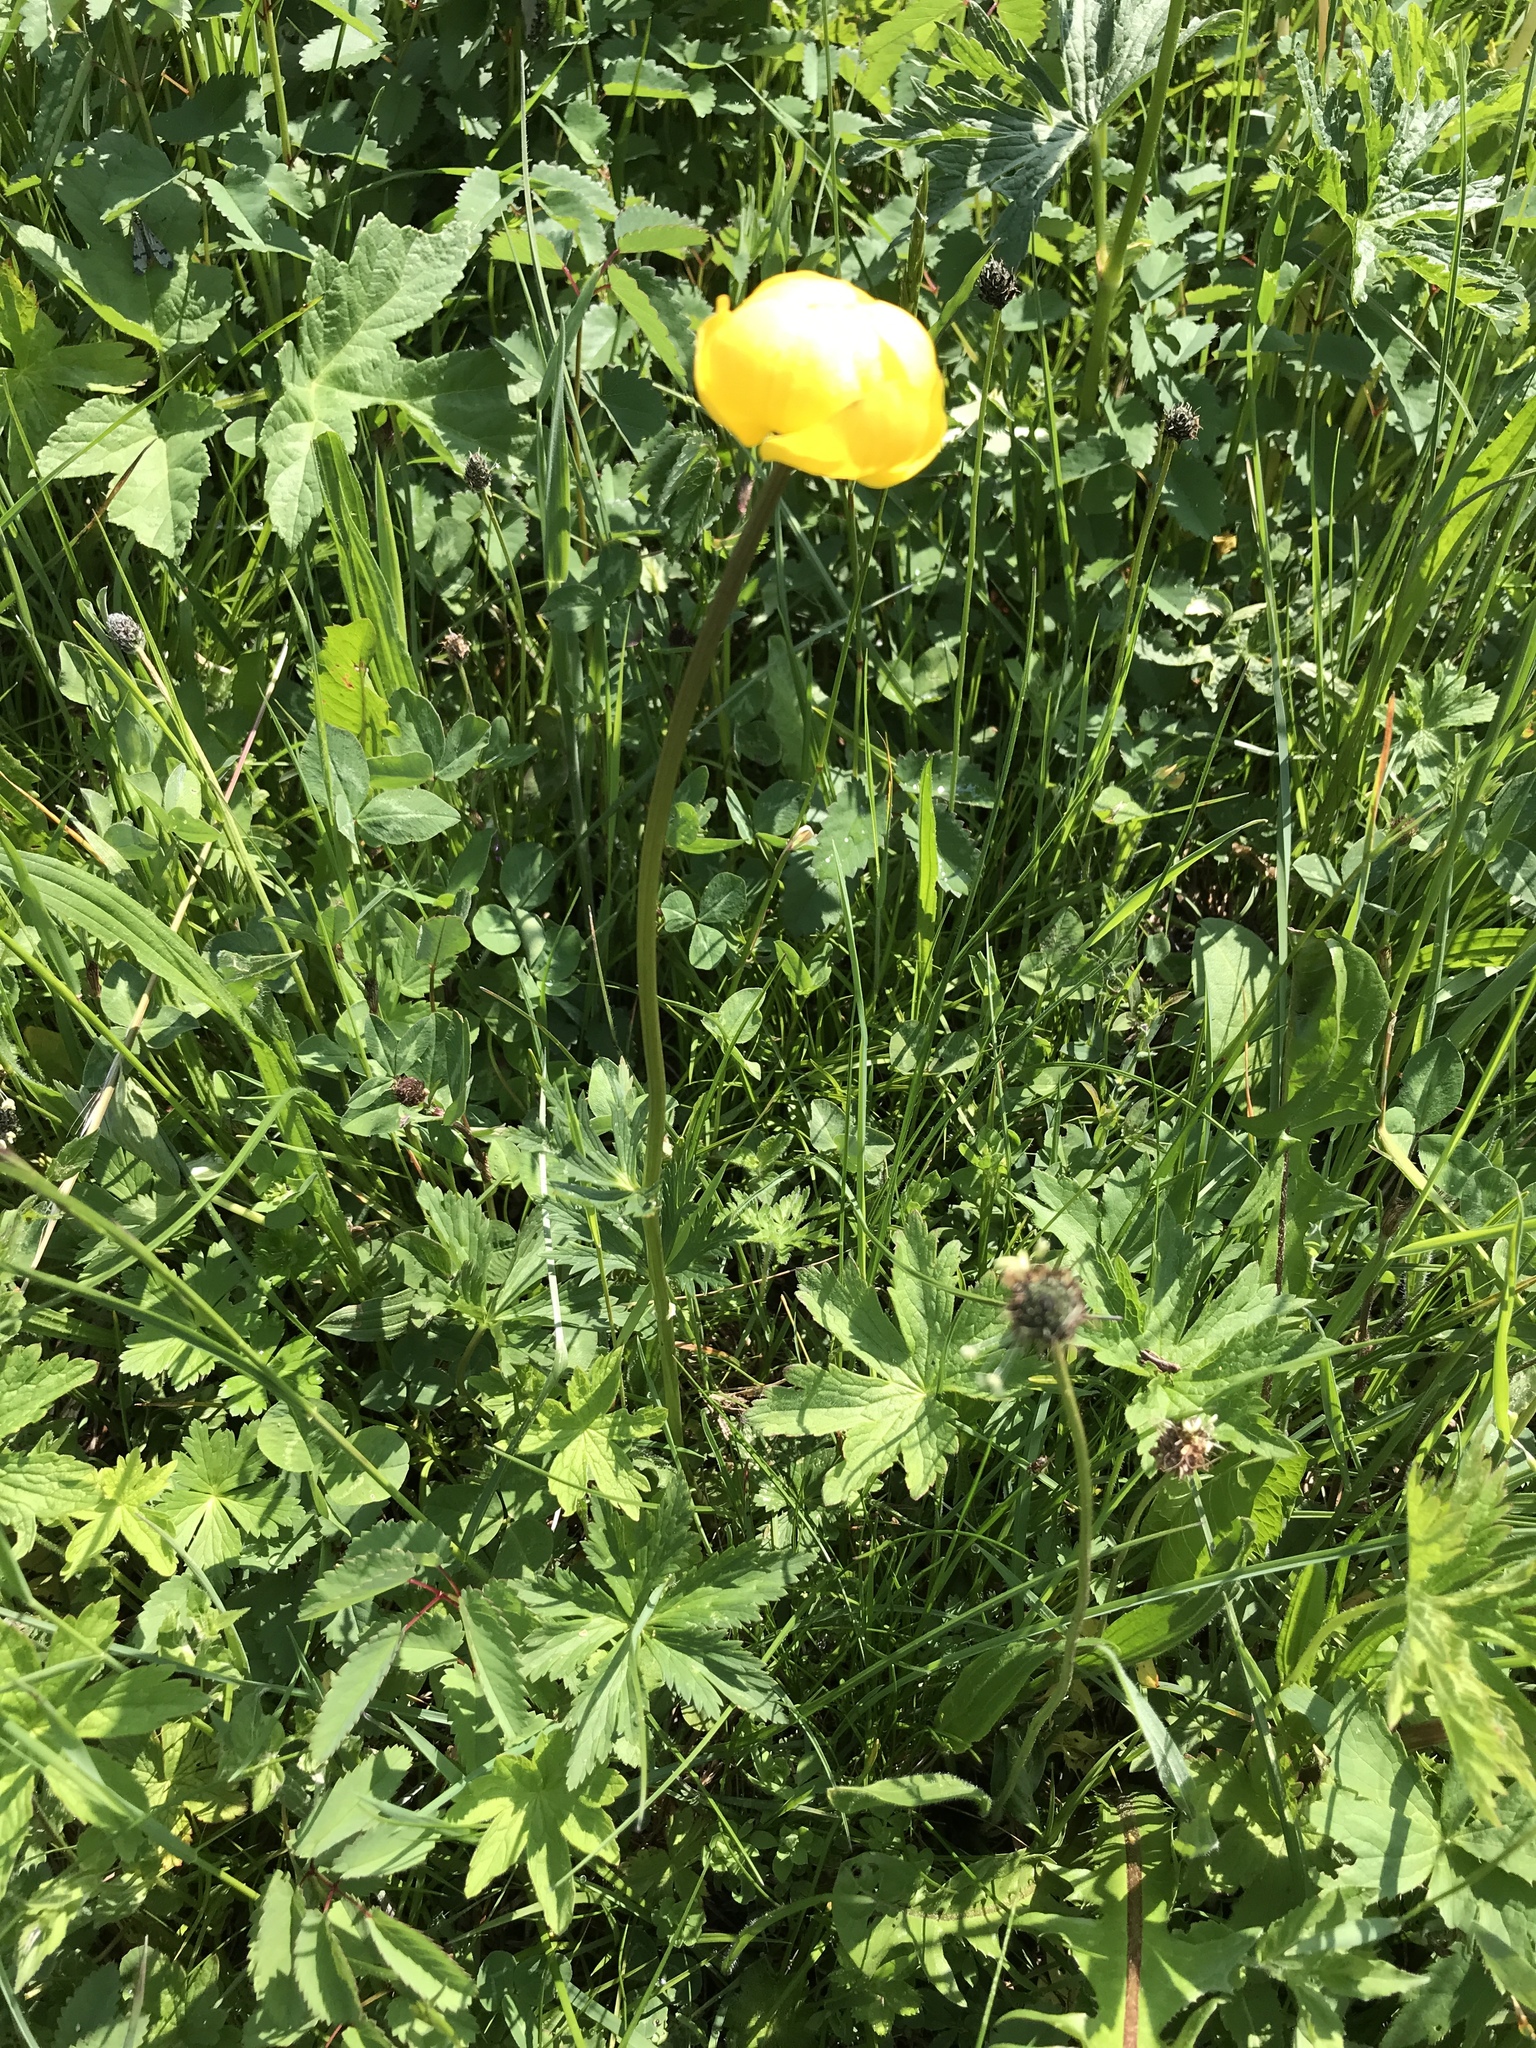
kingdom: Plantae
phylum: Tracheophyta
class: Magnoliopsida
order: Ranunculales
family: Ranunculaceae
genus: Trollius
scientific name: Trollius europaeus
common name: European globeflower
